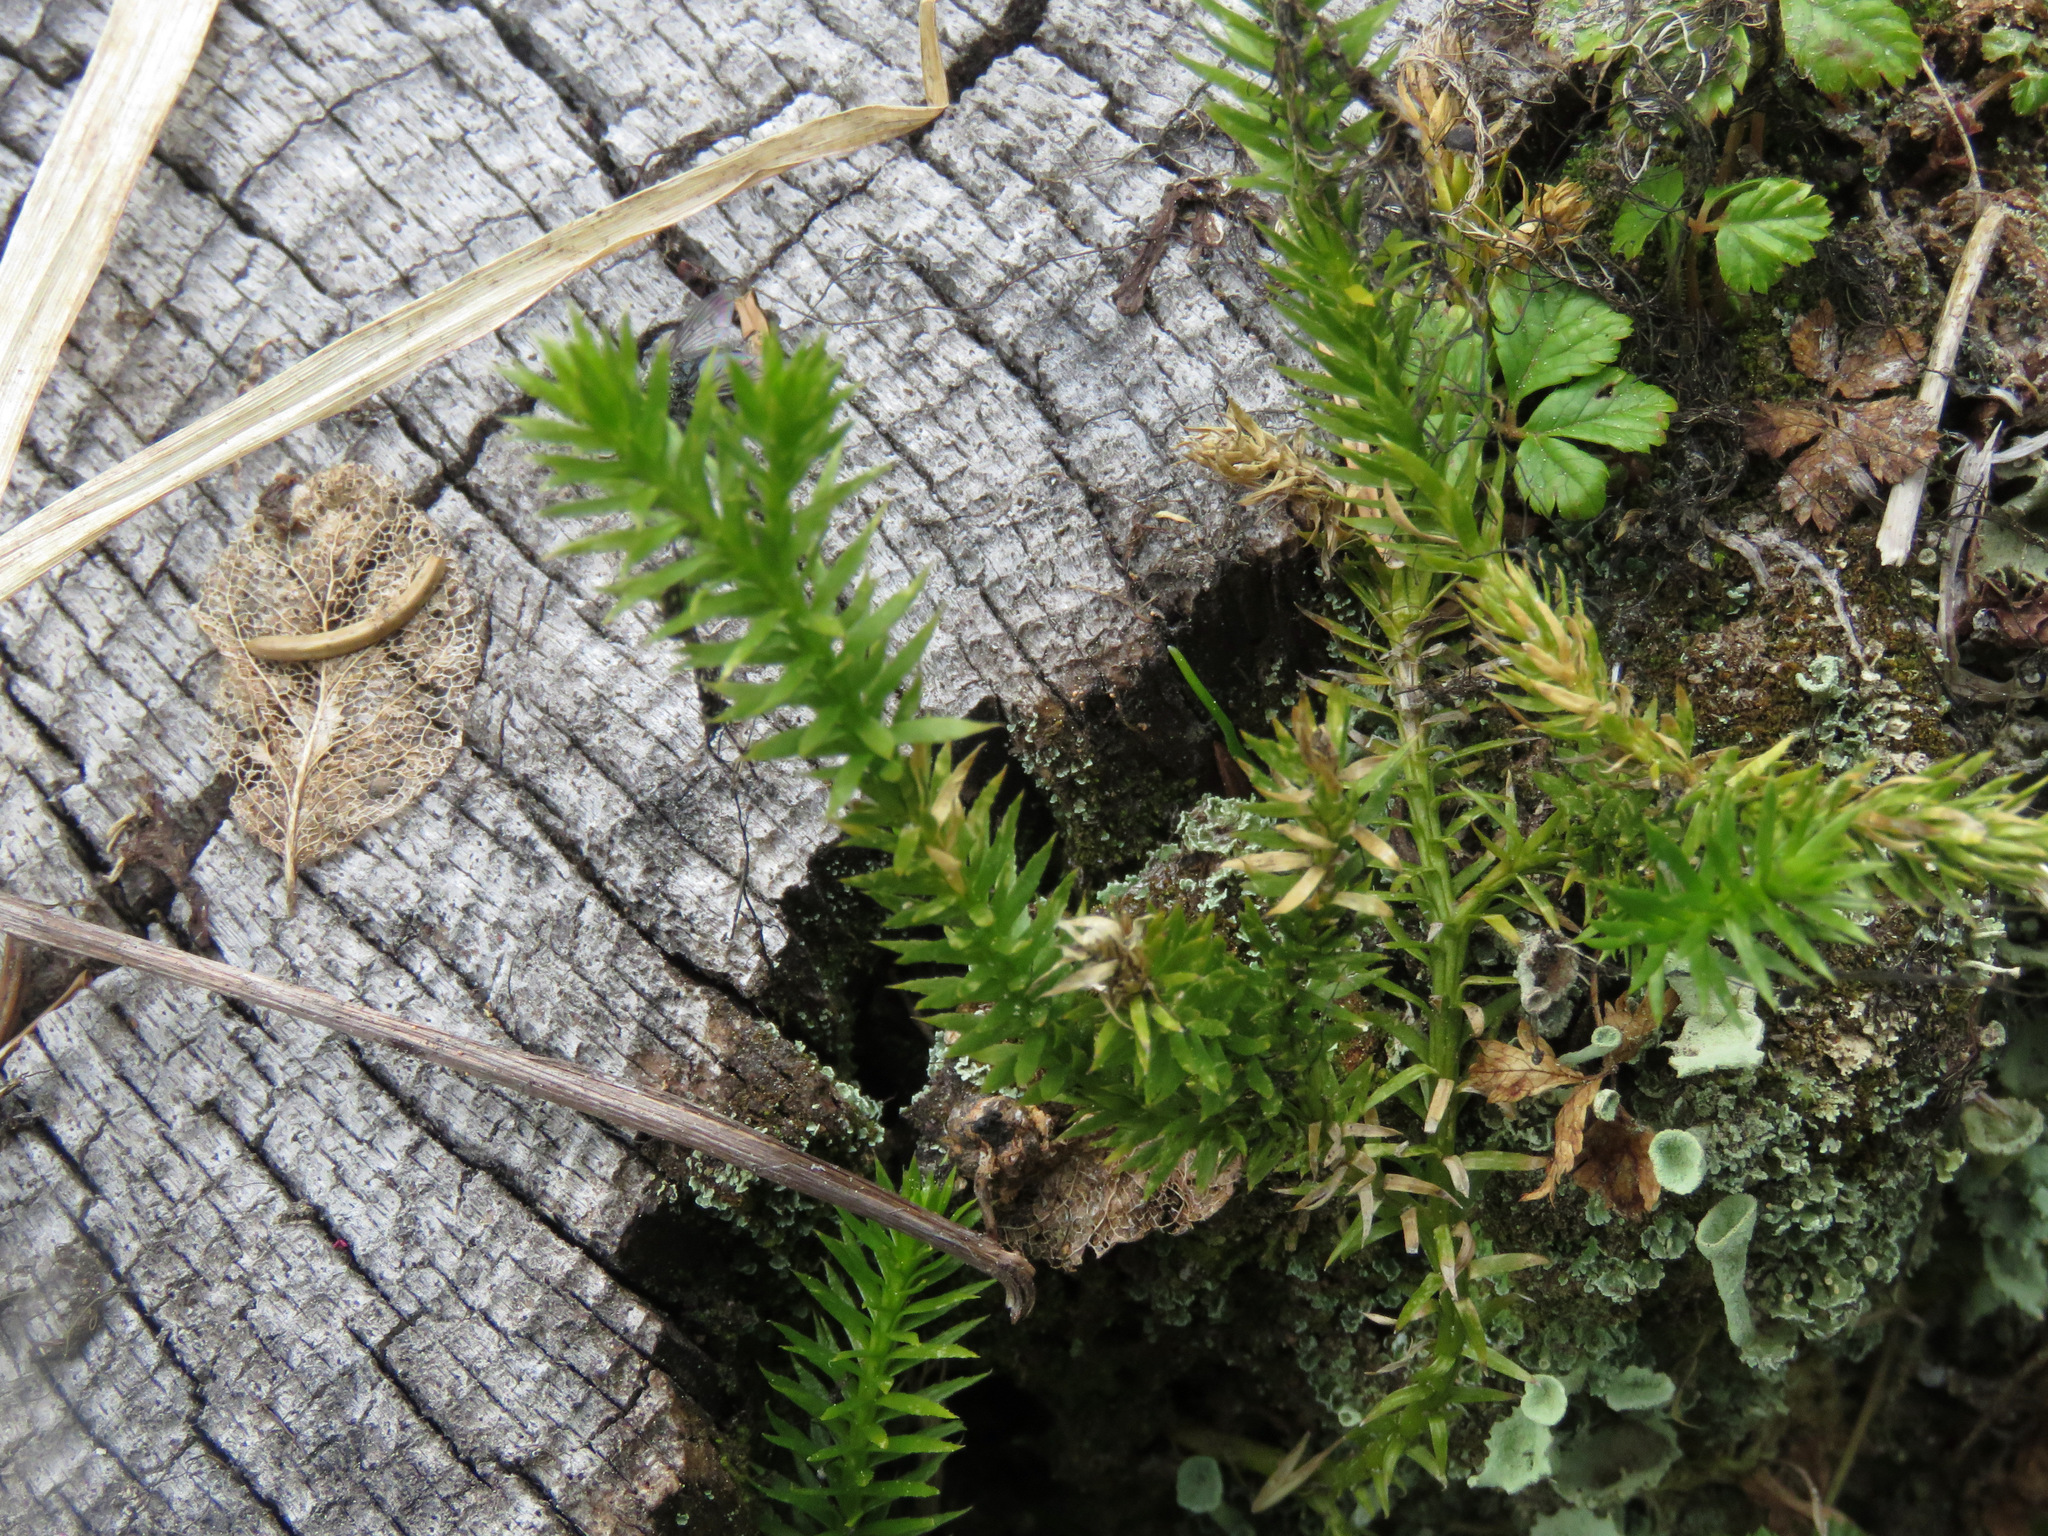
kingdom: Plantae
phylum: Tracheophyta
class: Lycopodiopsida
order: Lycopodiales
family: Lycopodiaceae
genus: Spinulum
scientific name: Spinulum annotinum
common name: Interrupted club-moss
